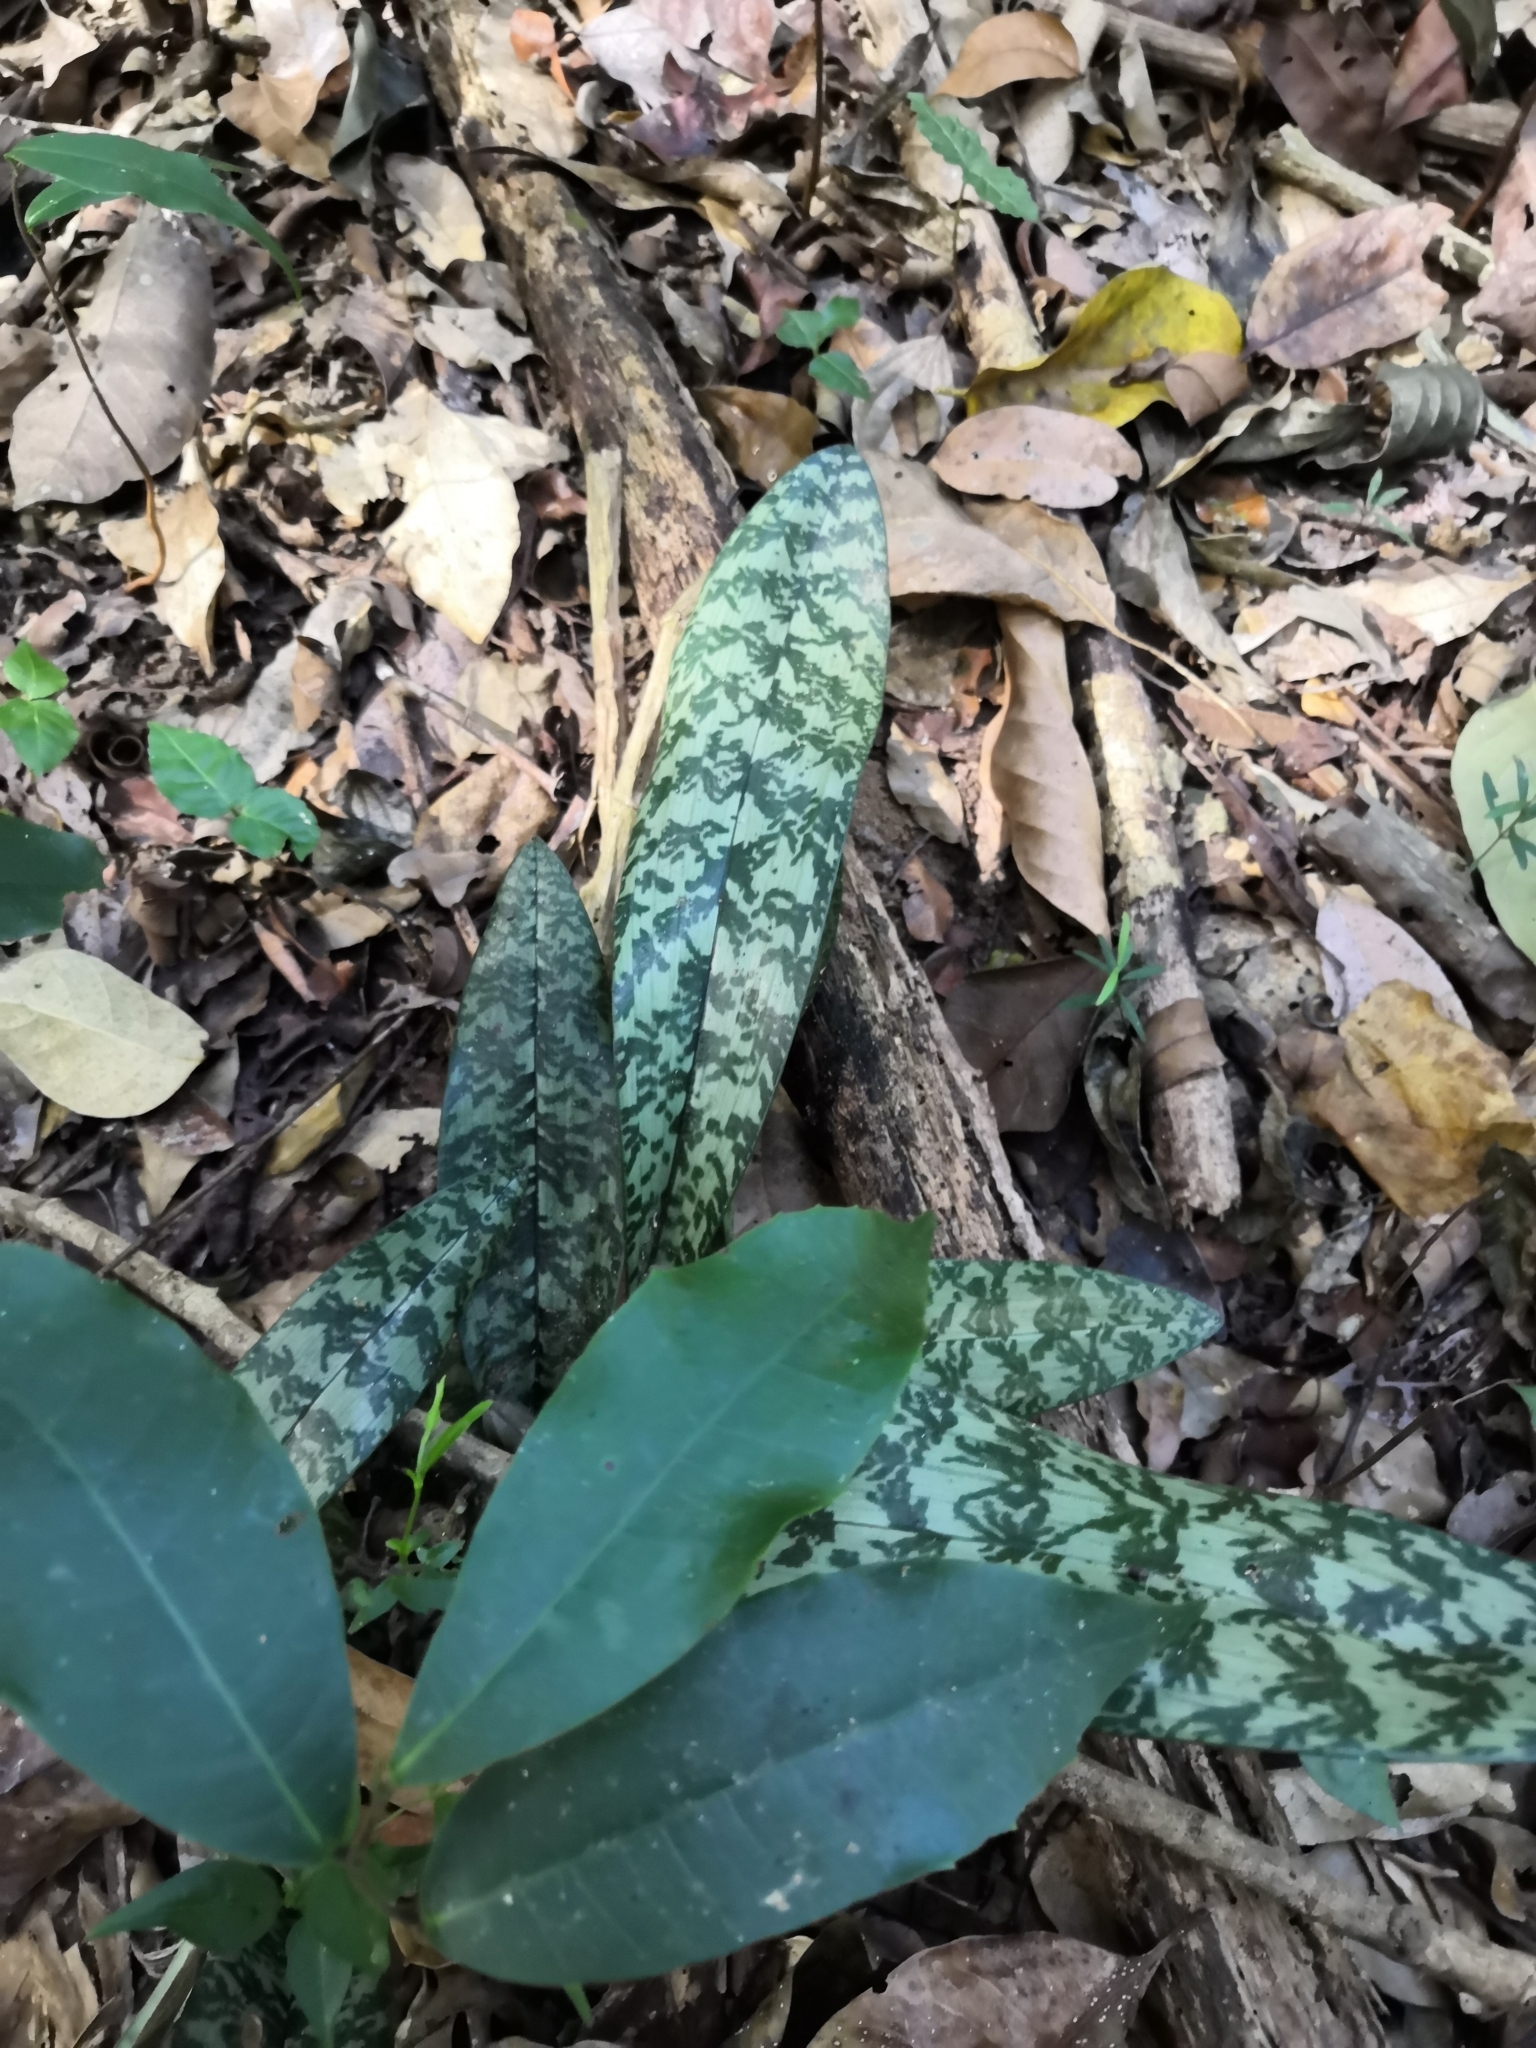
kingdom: Plantae
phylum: Tracheophyta
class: Liliopsida
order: Asparagales
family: Orchidaceae
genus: Eulophia
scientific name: Eulophia maculata
